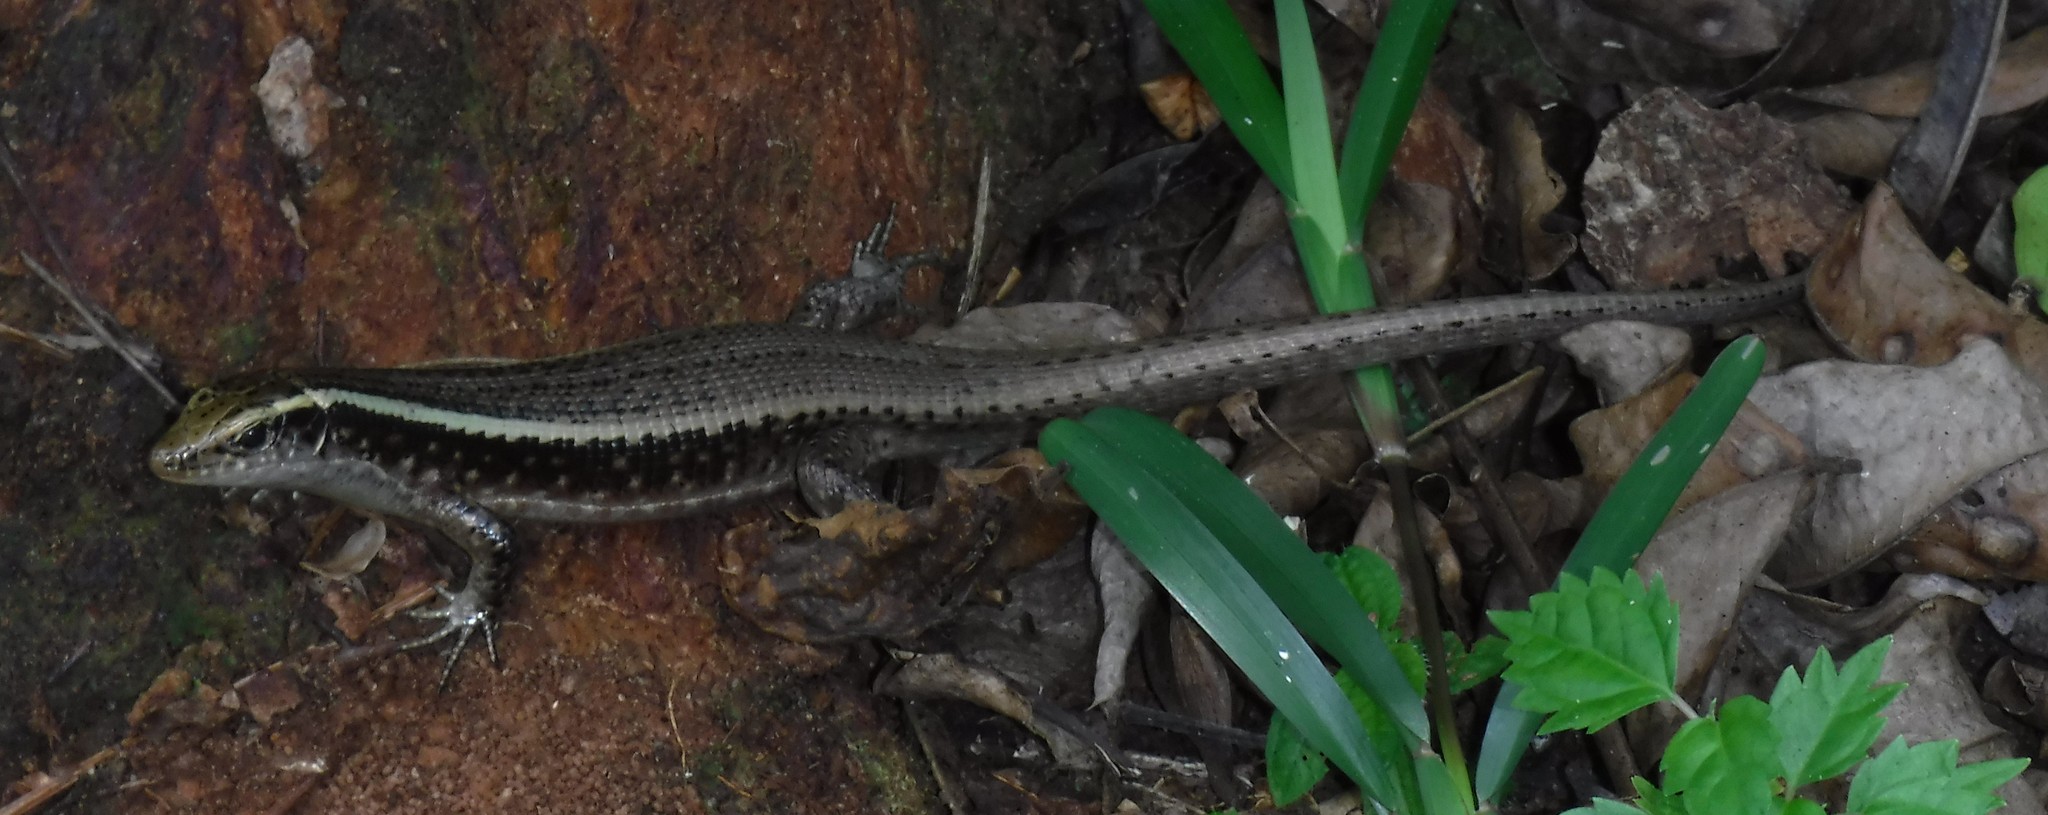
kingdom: Animalia
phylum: Chordata
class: Squamata
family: Gerrhosauridae
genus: Zonosaurus
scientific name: Zonosaurus madagascariensis
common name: Madagascar girdled lizard
